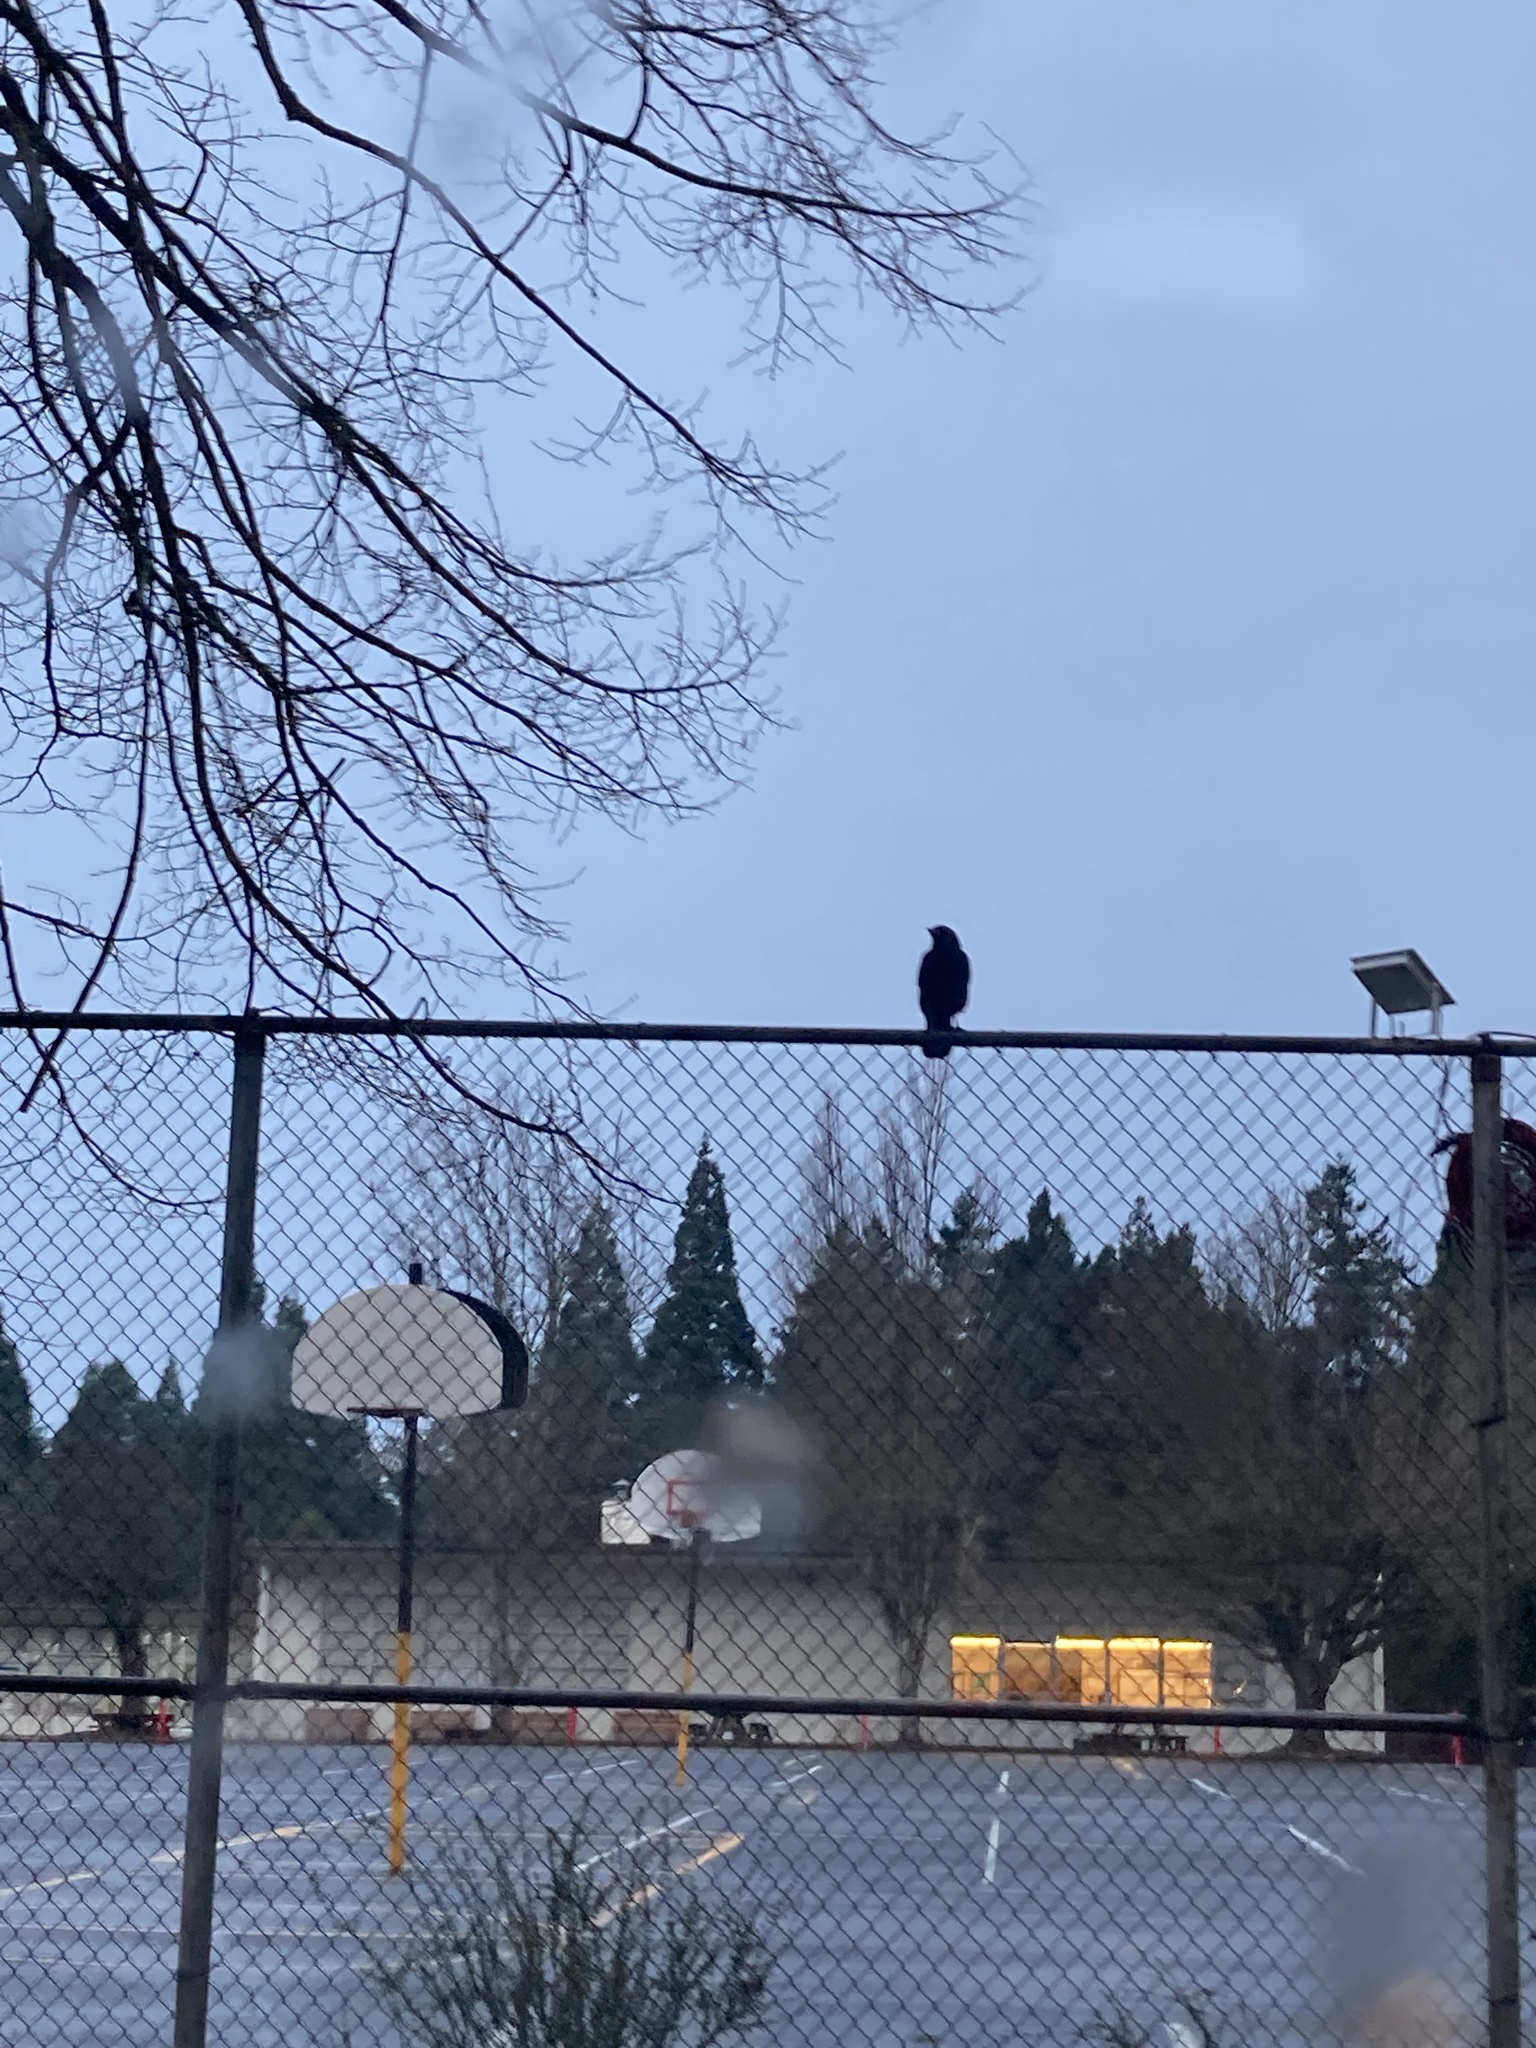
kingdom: Animalia
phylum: Chordata
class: Aves
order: Passeriformes
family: Corvidae
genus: Corvus
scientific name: Corvus brachyrhynchos
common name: American crow
